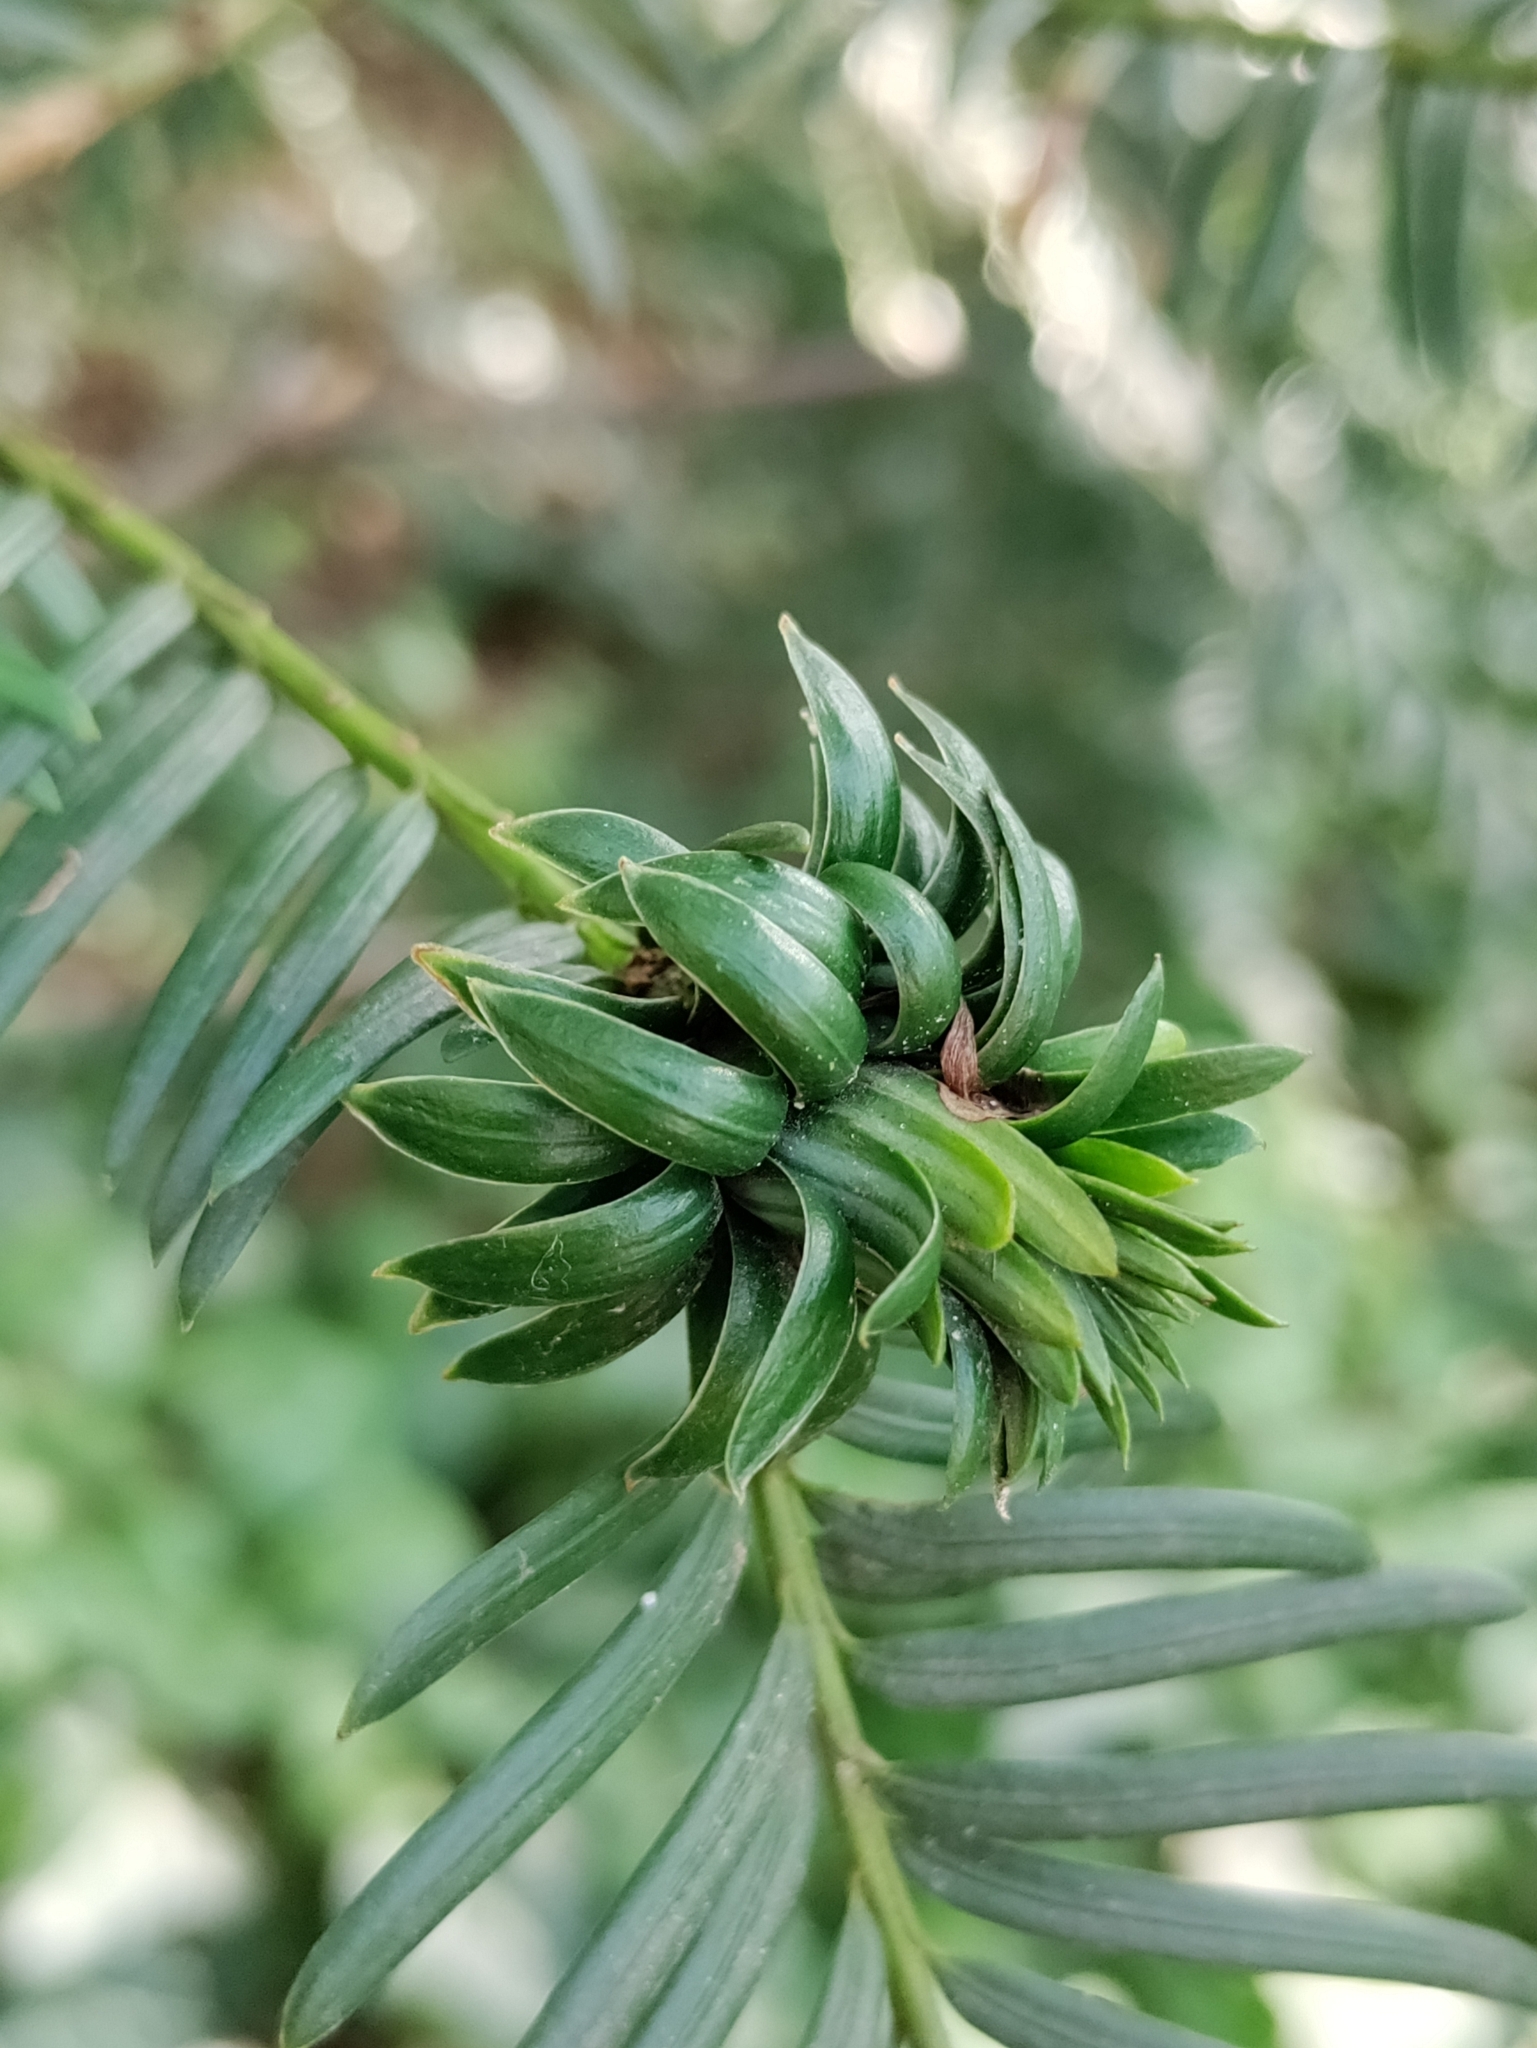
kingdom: Animalia
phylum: Arthropoda
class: Insecta
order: Diptera
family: Cecidomyiidae
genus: Taxomyia
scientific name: Taxomyia taxi
